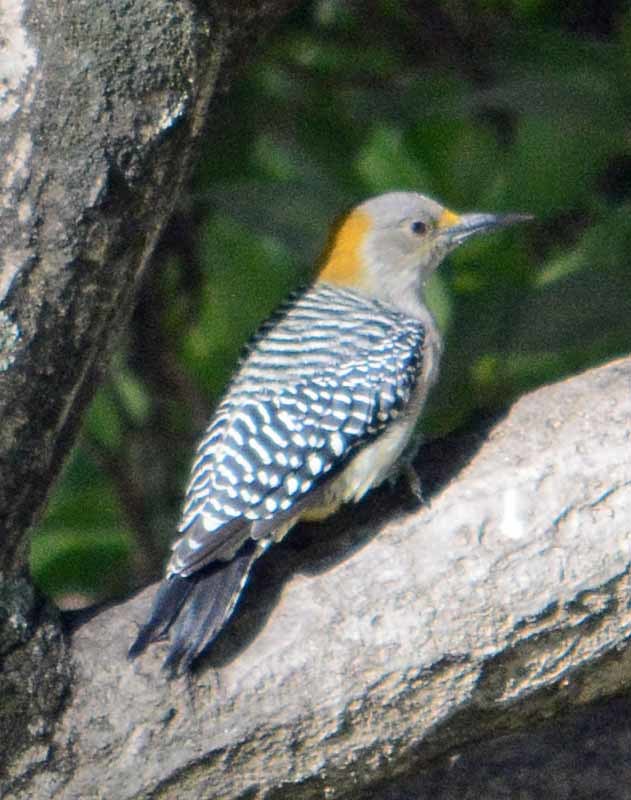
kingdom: Animalia
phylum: Chordata
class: Aves
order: Piciformes
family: Picidae
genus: Melanerpes
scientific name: Melanerpes aurifrons
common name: Golden-fronted woodpecker
